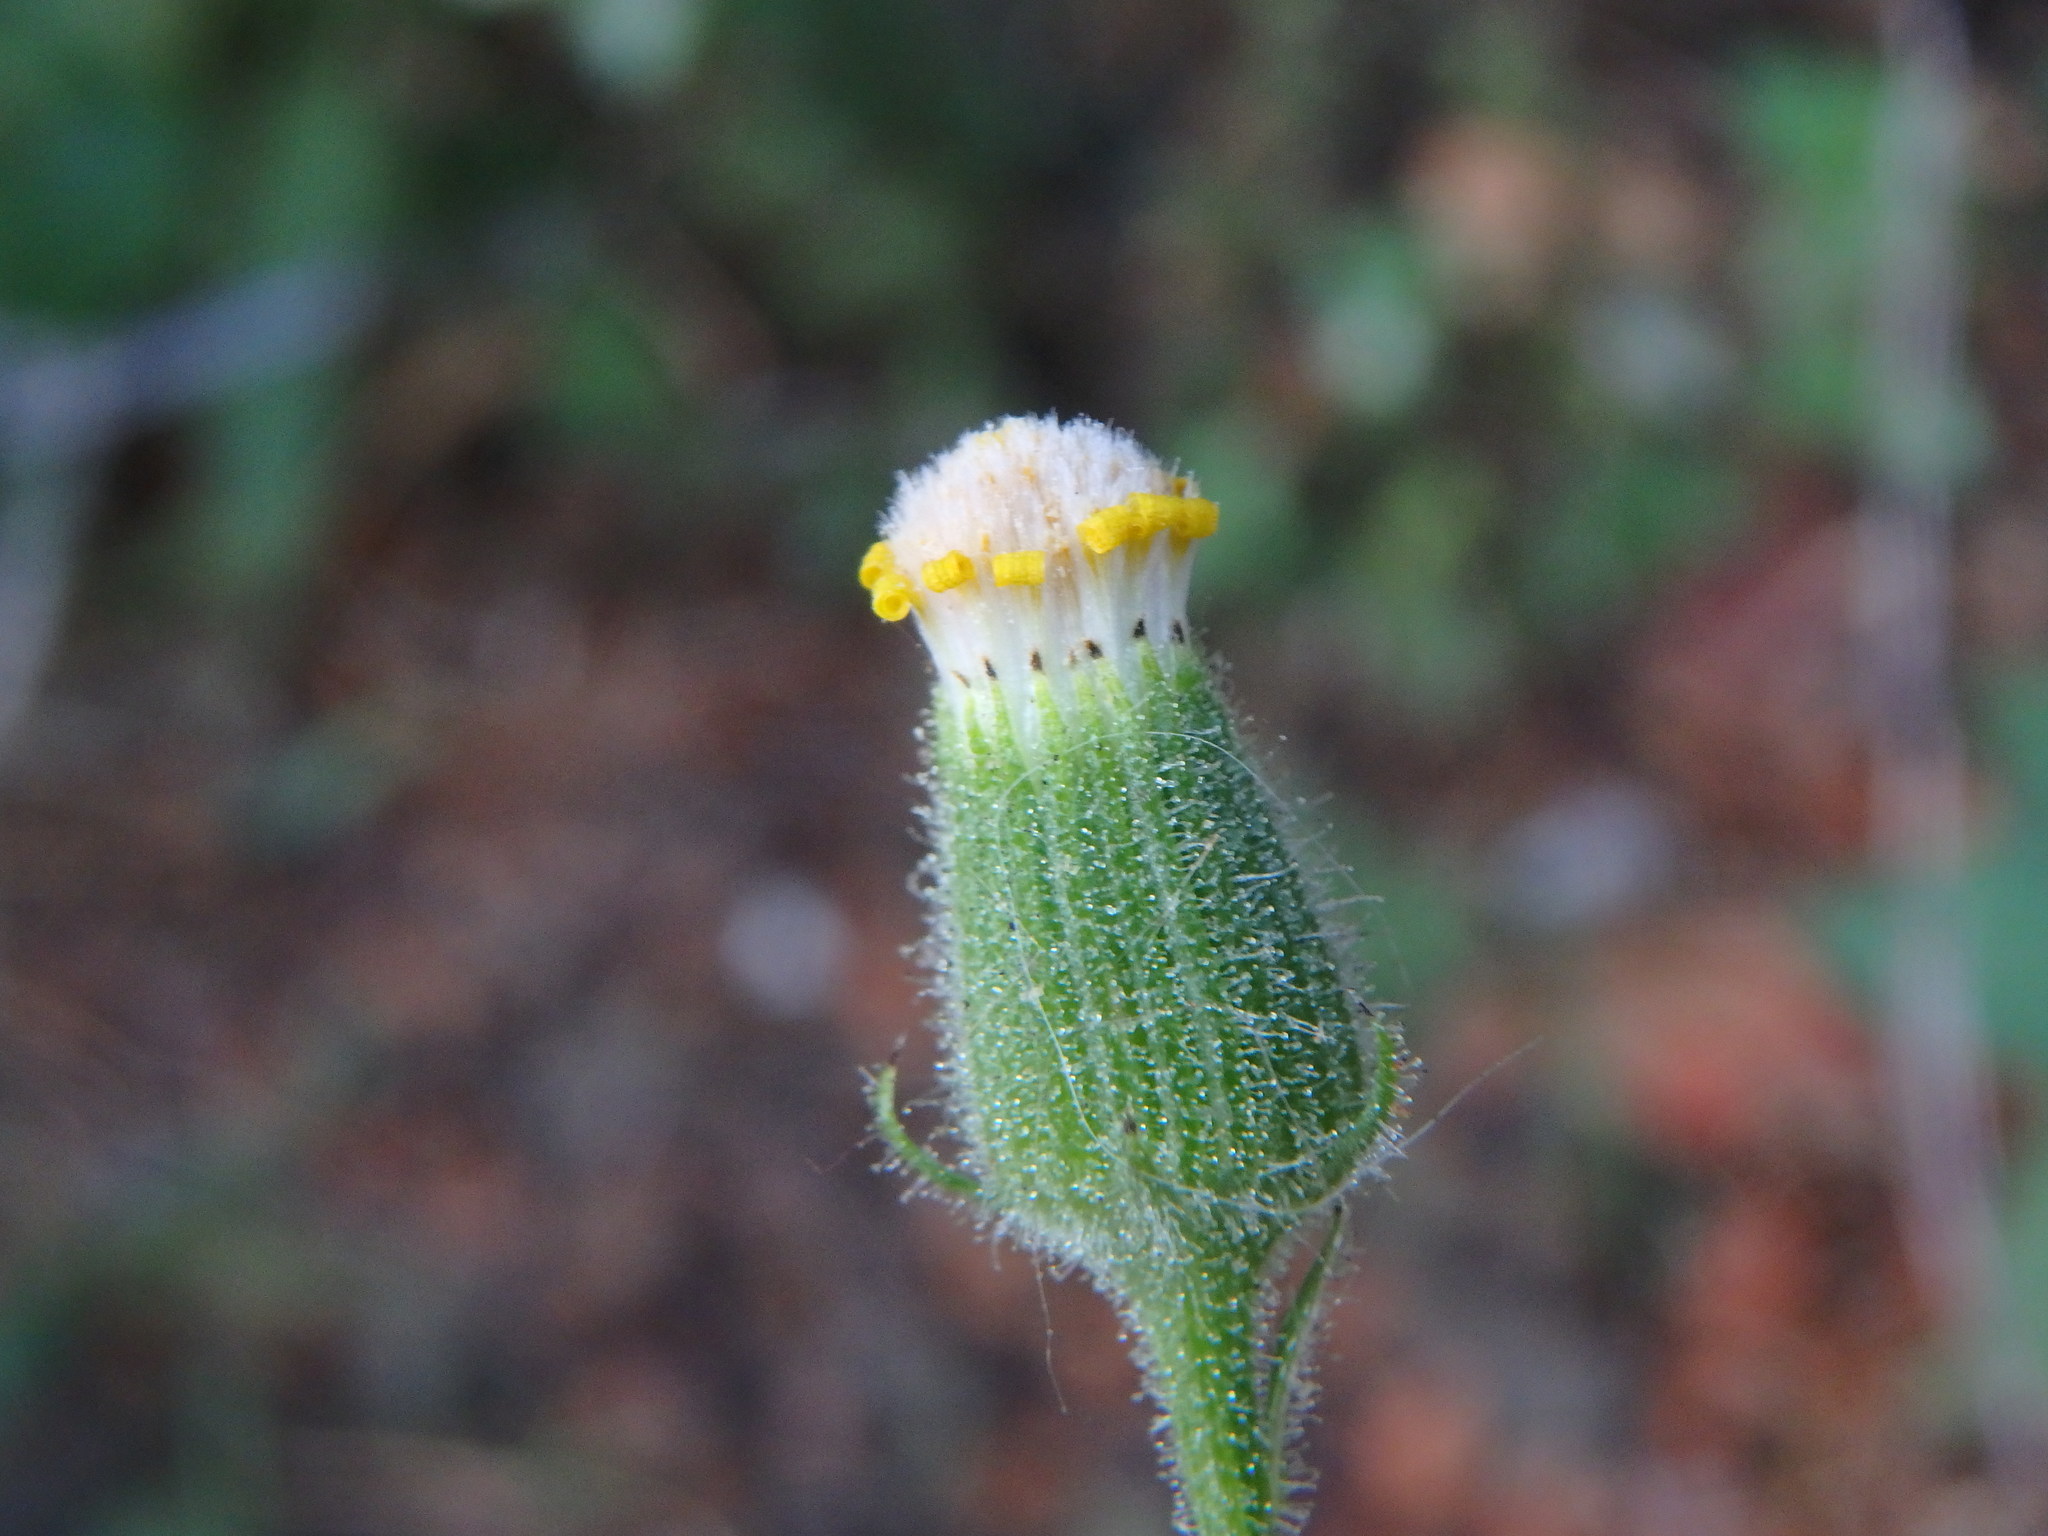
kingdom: Plantae
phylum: Tracheophyta
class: Magnoliopsida
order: Asterales
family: Asteraceae
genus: Senecio
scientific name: Senecio viscosus
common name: Sticky groundsel
